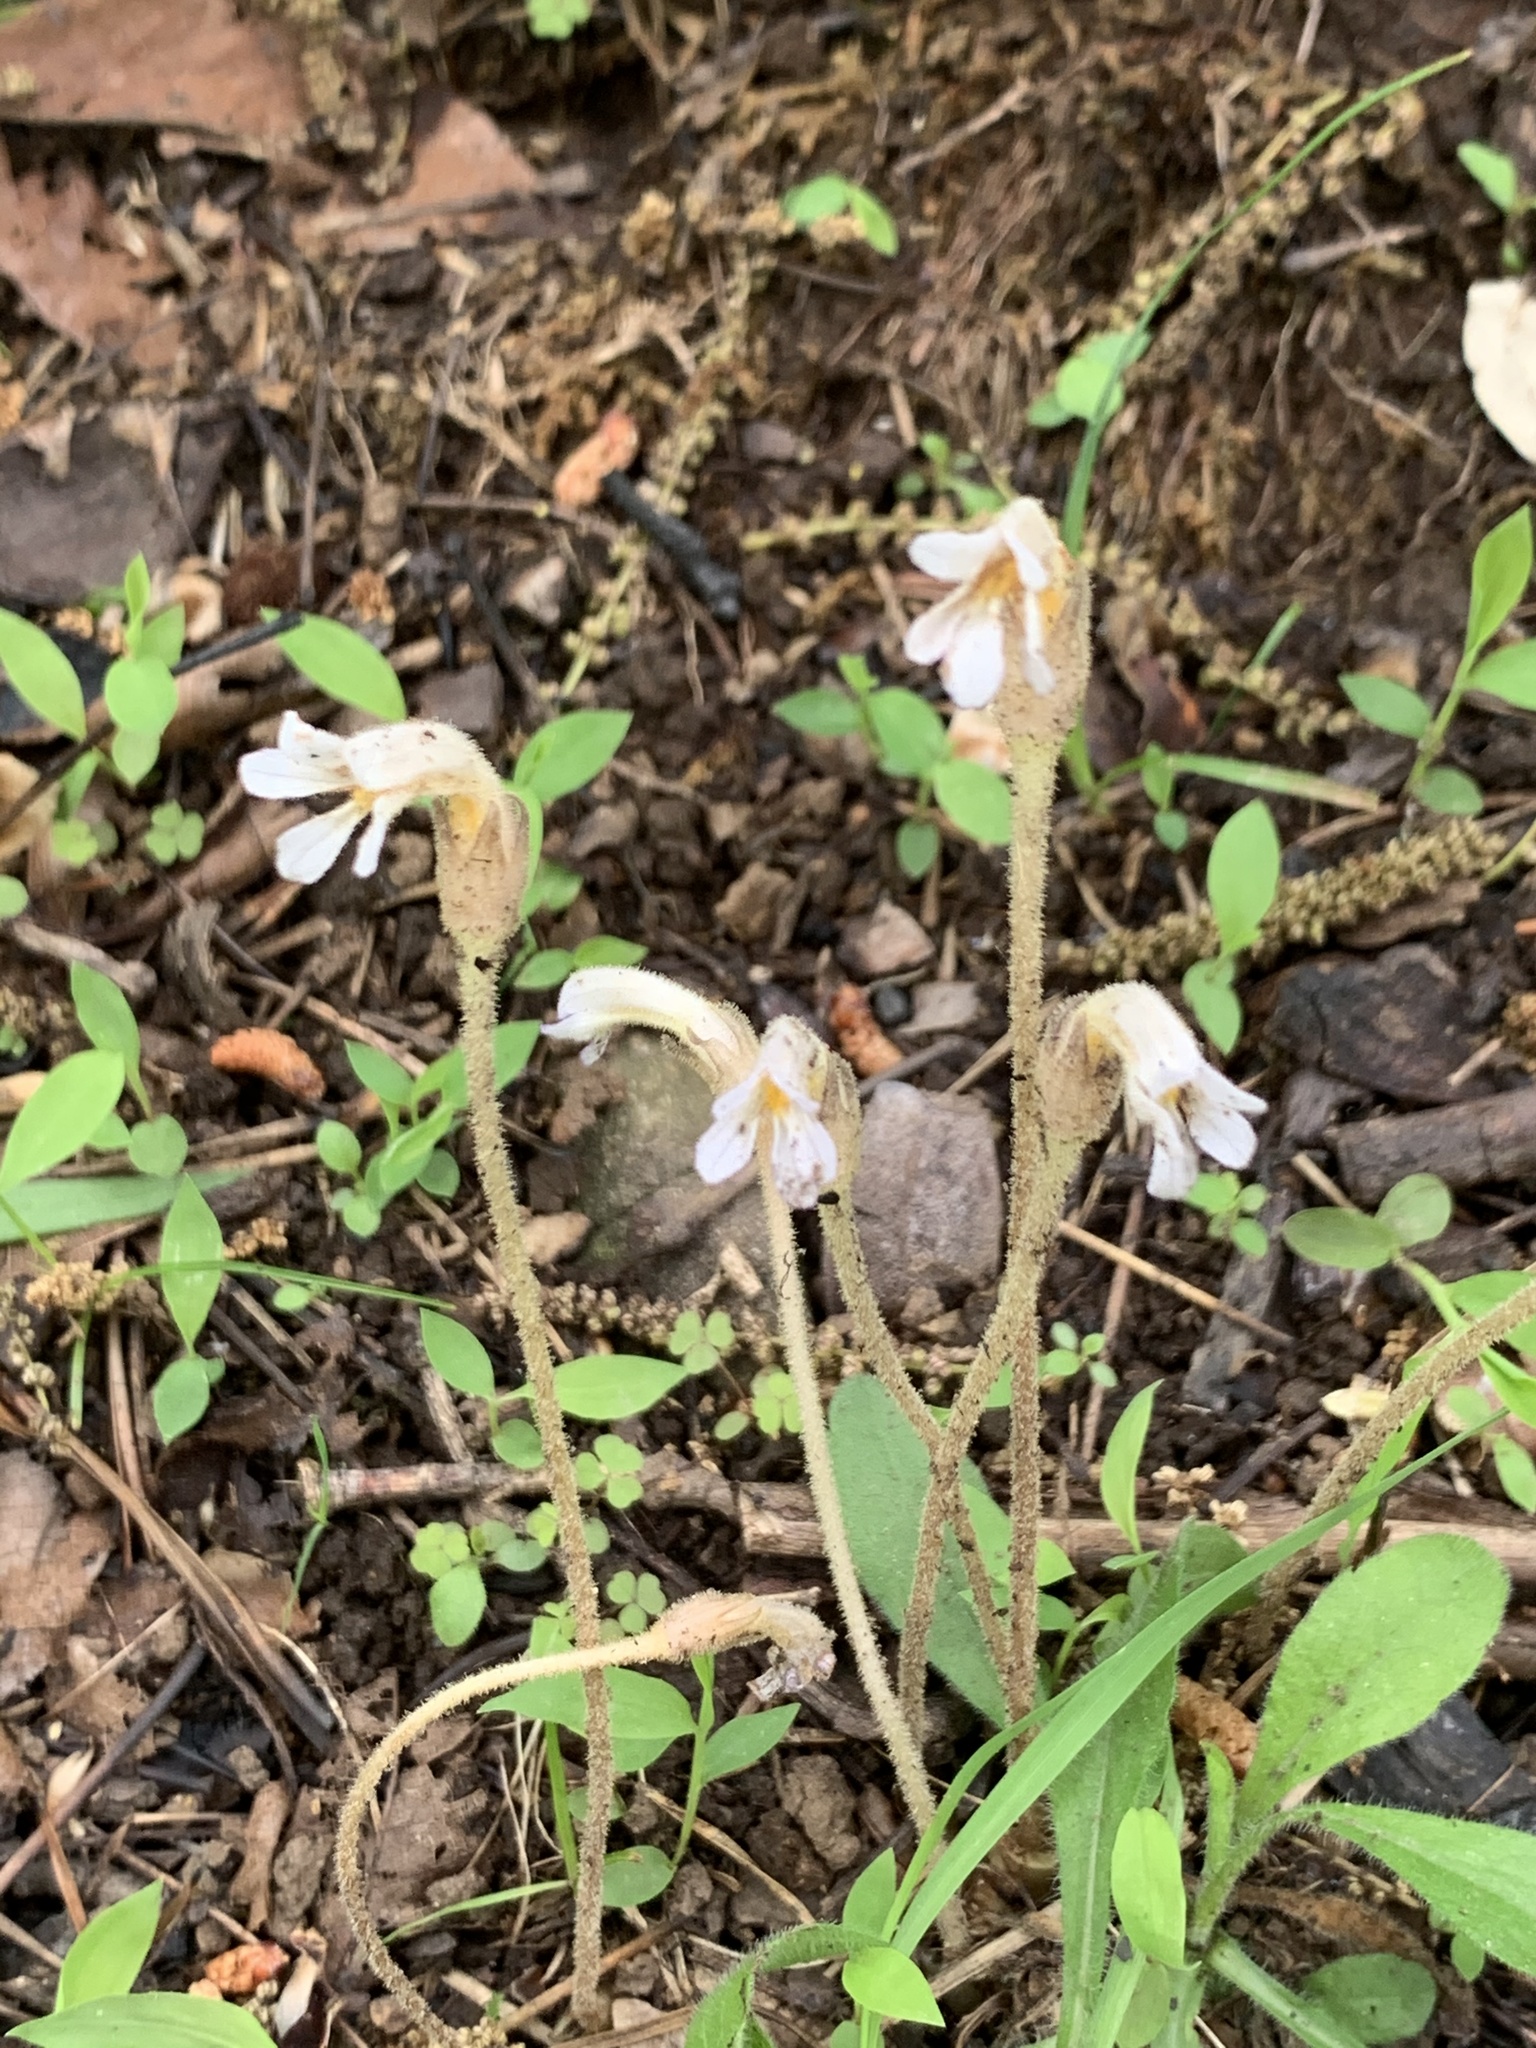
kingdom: Plantae
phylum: Tracheophyta
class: Magnoliopsida
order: Lamiales
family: Orobanchaceae
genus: Aphyllon
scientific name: Aphyllon uniflorum
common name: One-flowered broomrape
